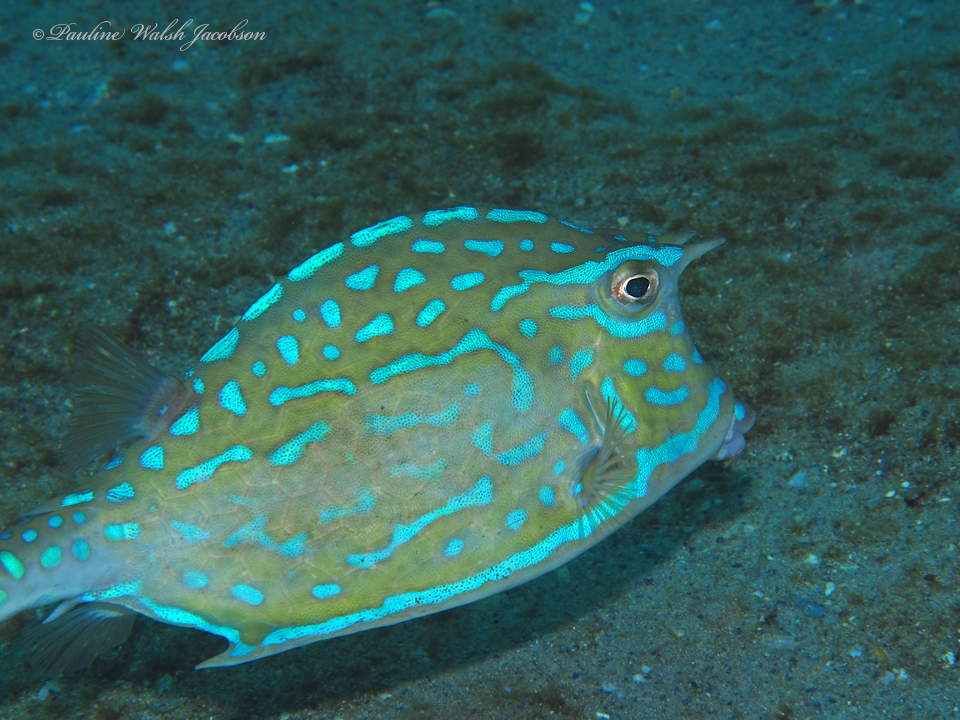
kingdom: Animalia
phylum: Chordata
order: Tetraodontiformes
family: Ostraciidae
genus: Acanthostracion
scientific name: Acanthostracion quadricornis
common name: Scrawled cowfish
